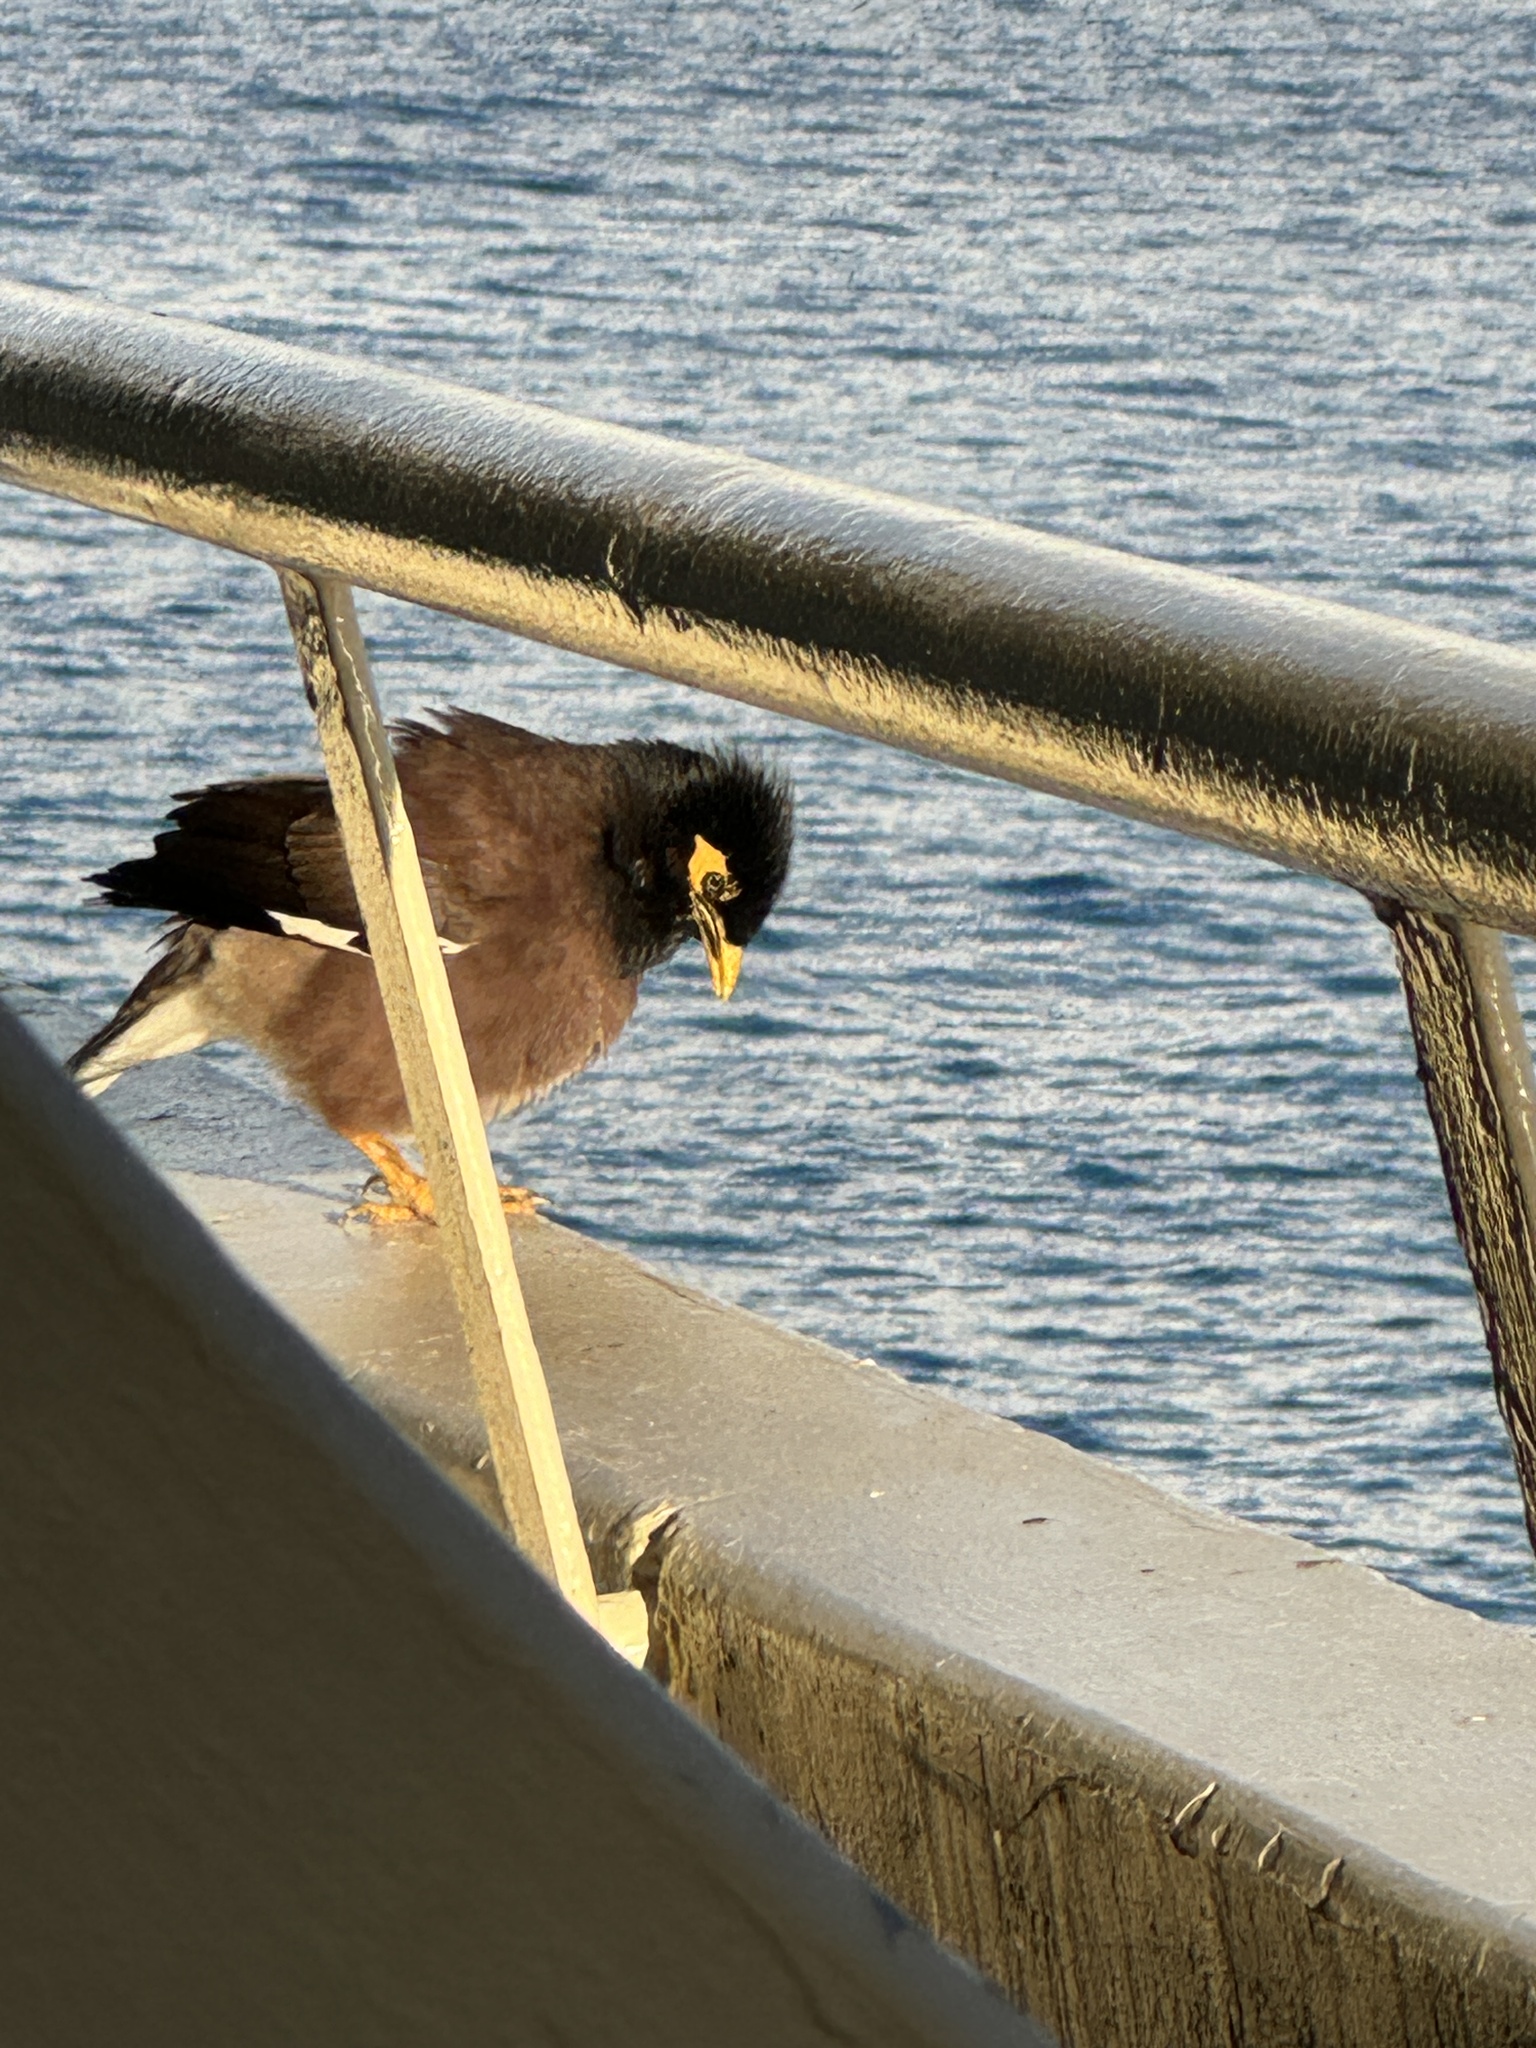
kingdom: Animalia
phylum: Chordata
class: Aves
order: Passeriformes
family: Sturnidae
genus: Acridotheres
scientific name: Acridotheres tristis
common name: Common myna
